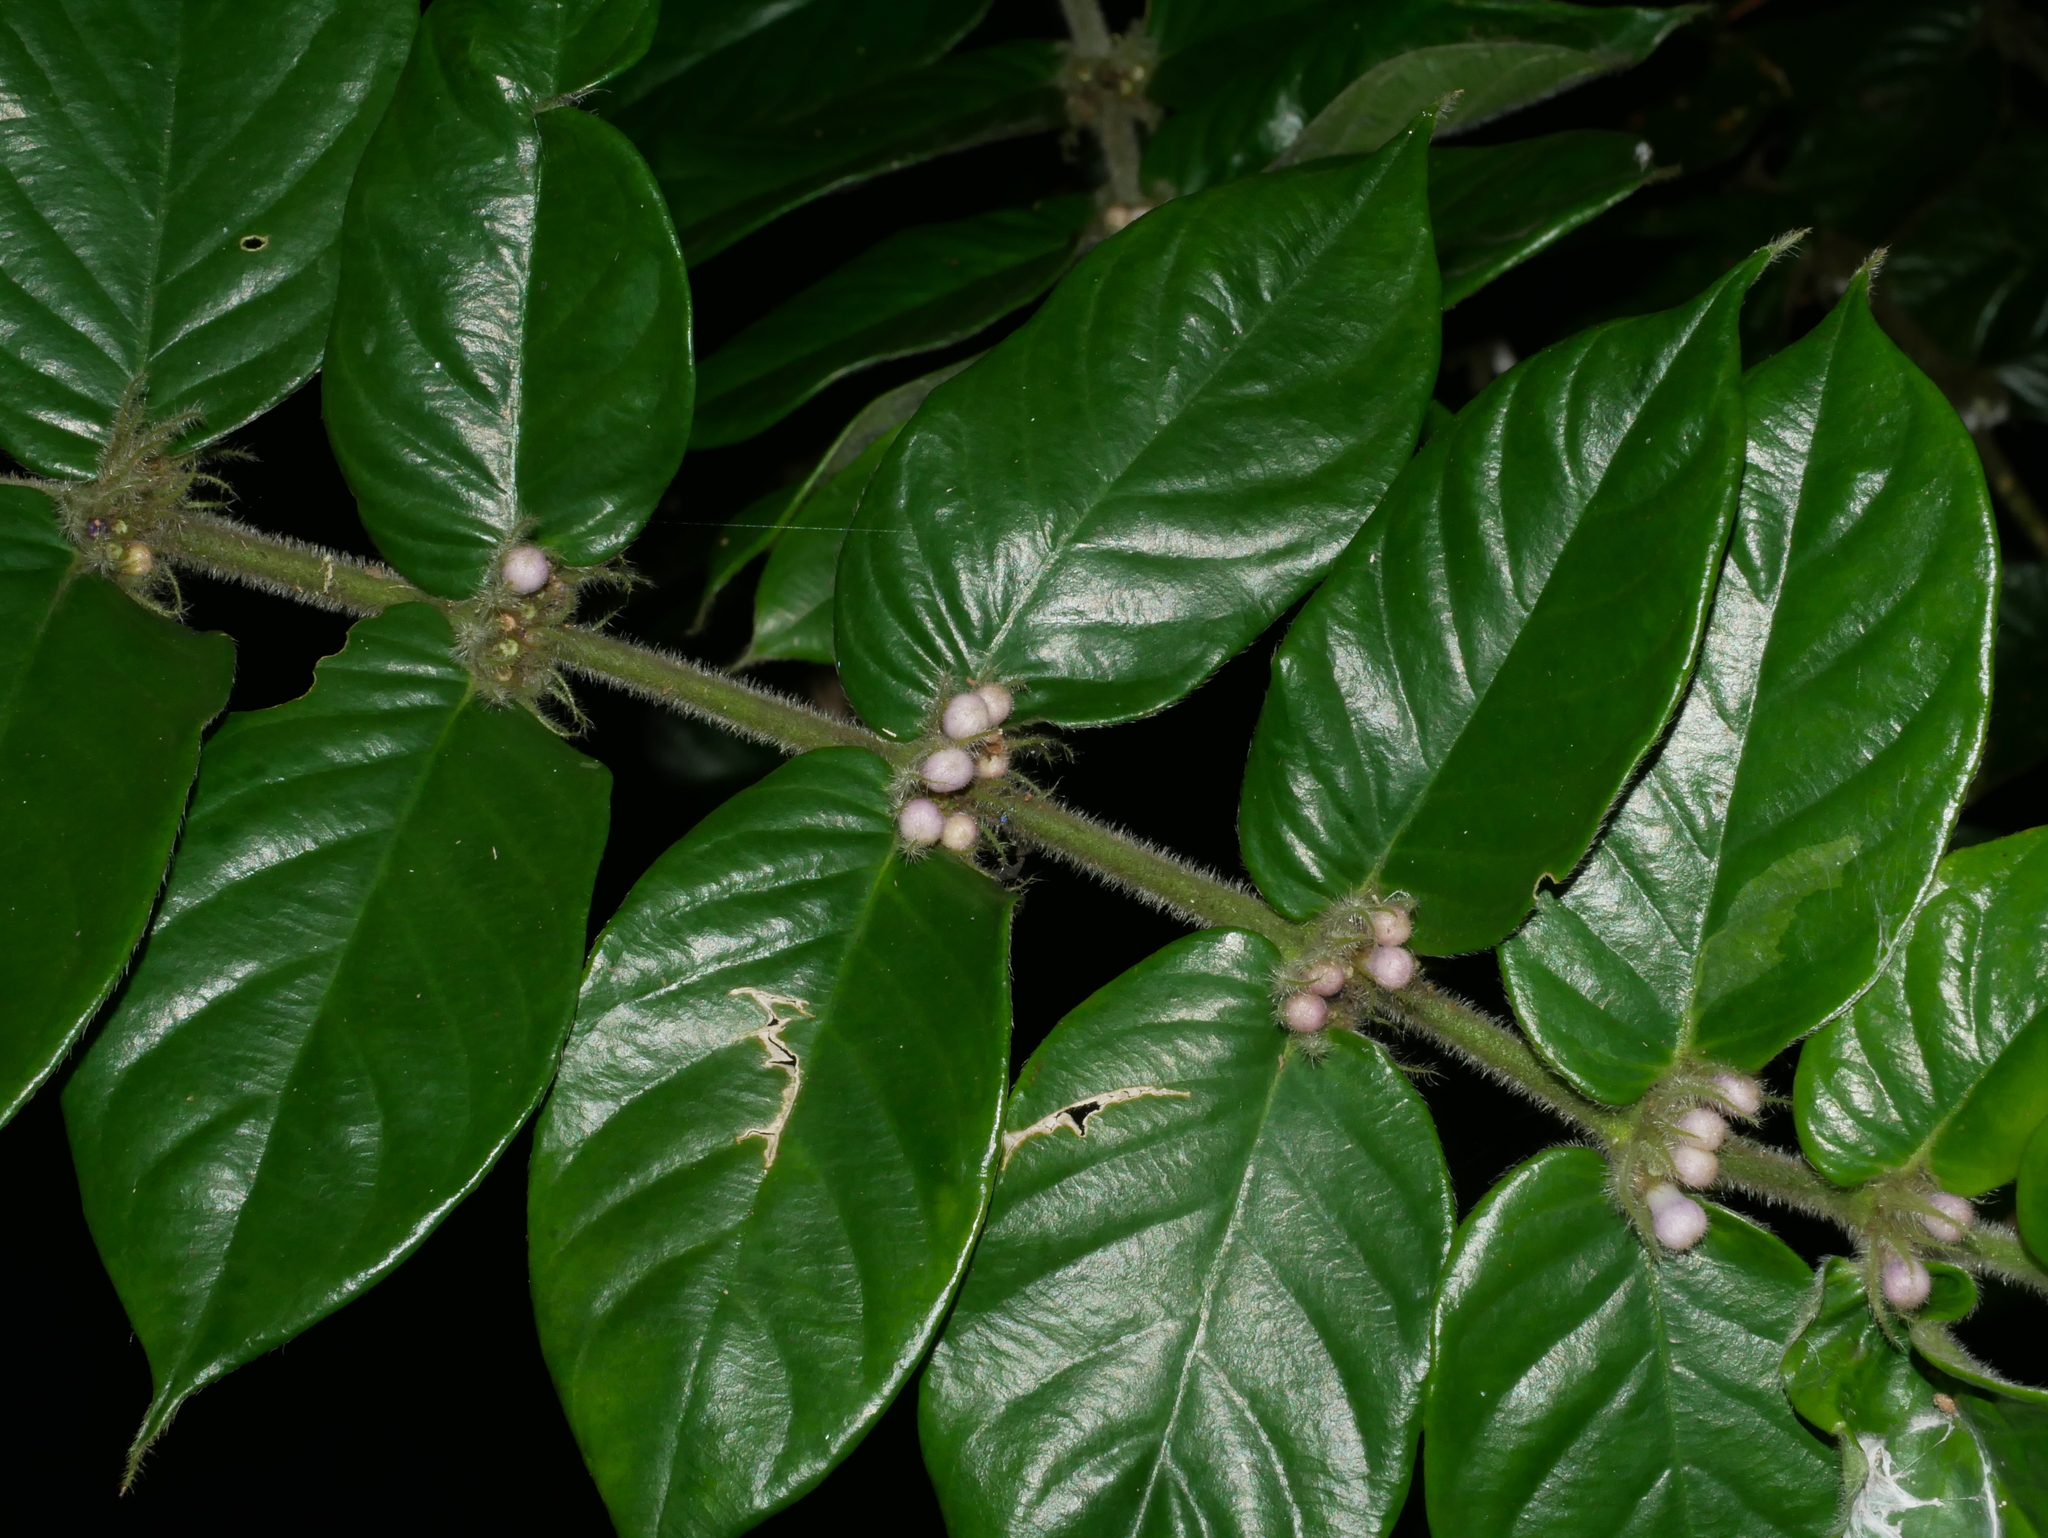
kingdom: Plantae
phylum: Tracheophyta
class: Magnoliopsida
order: Gentianales
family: Rubiaceae
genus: Lasianthus
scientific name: Lasianthus attenuatus
